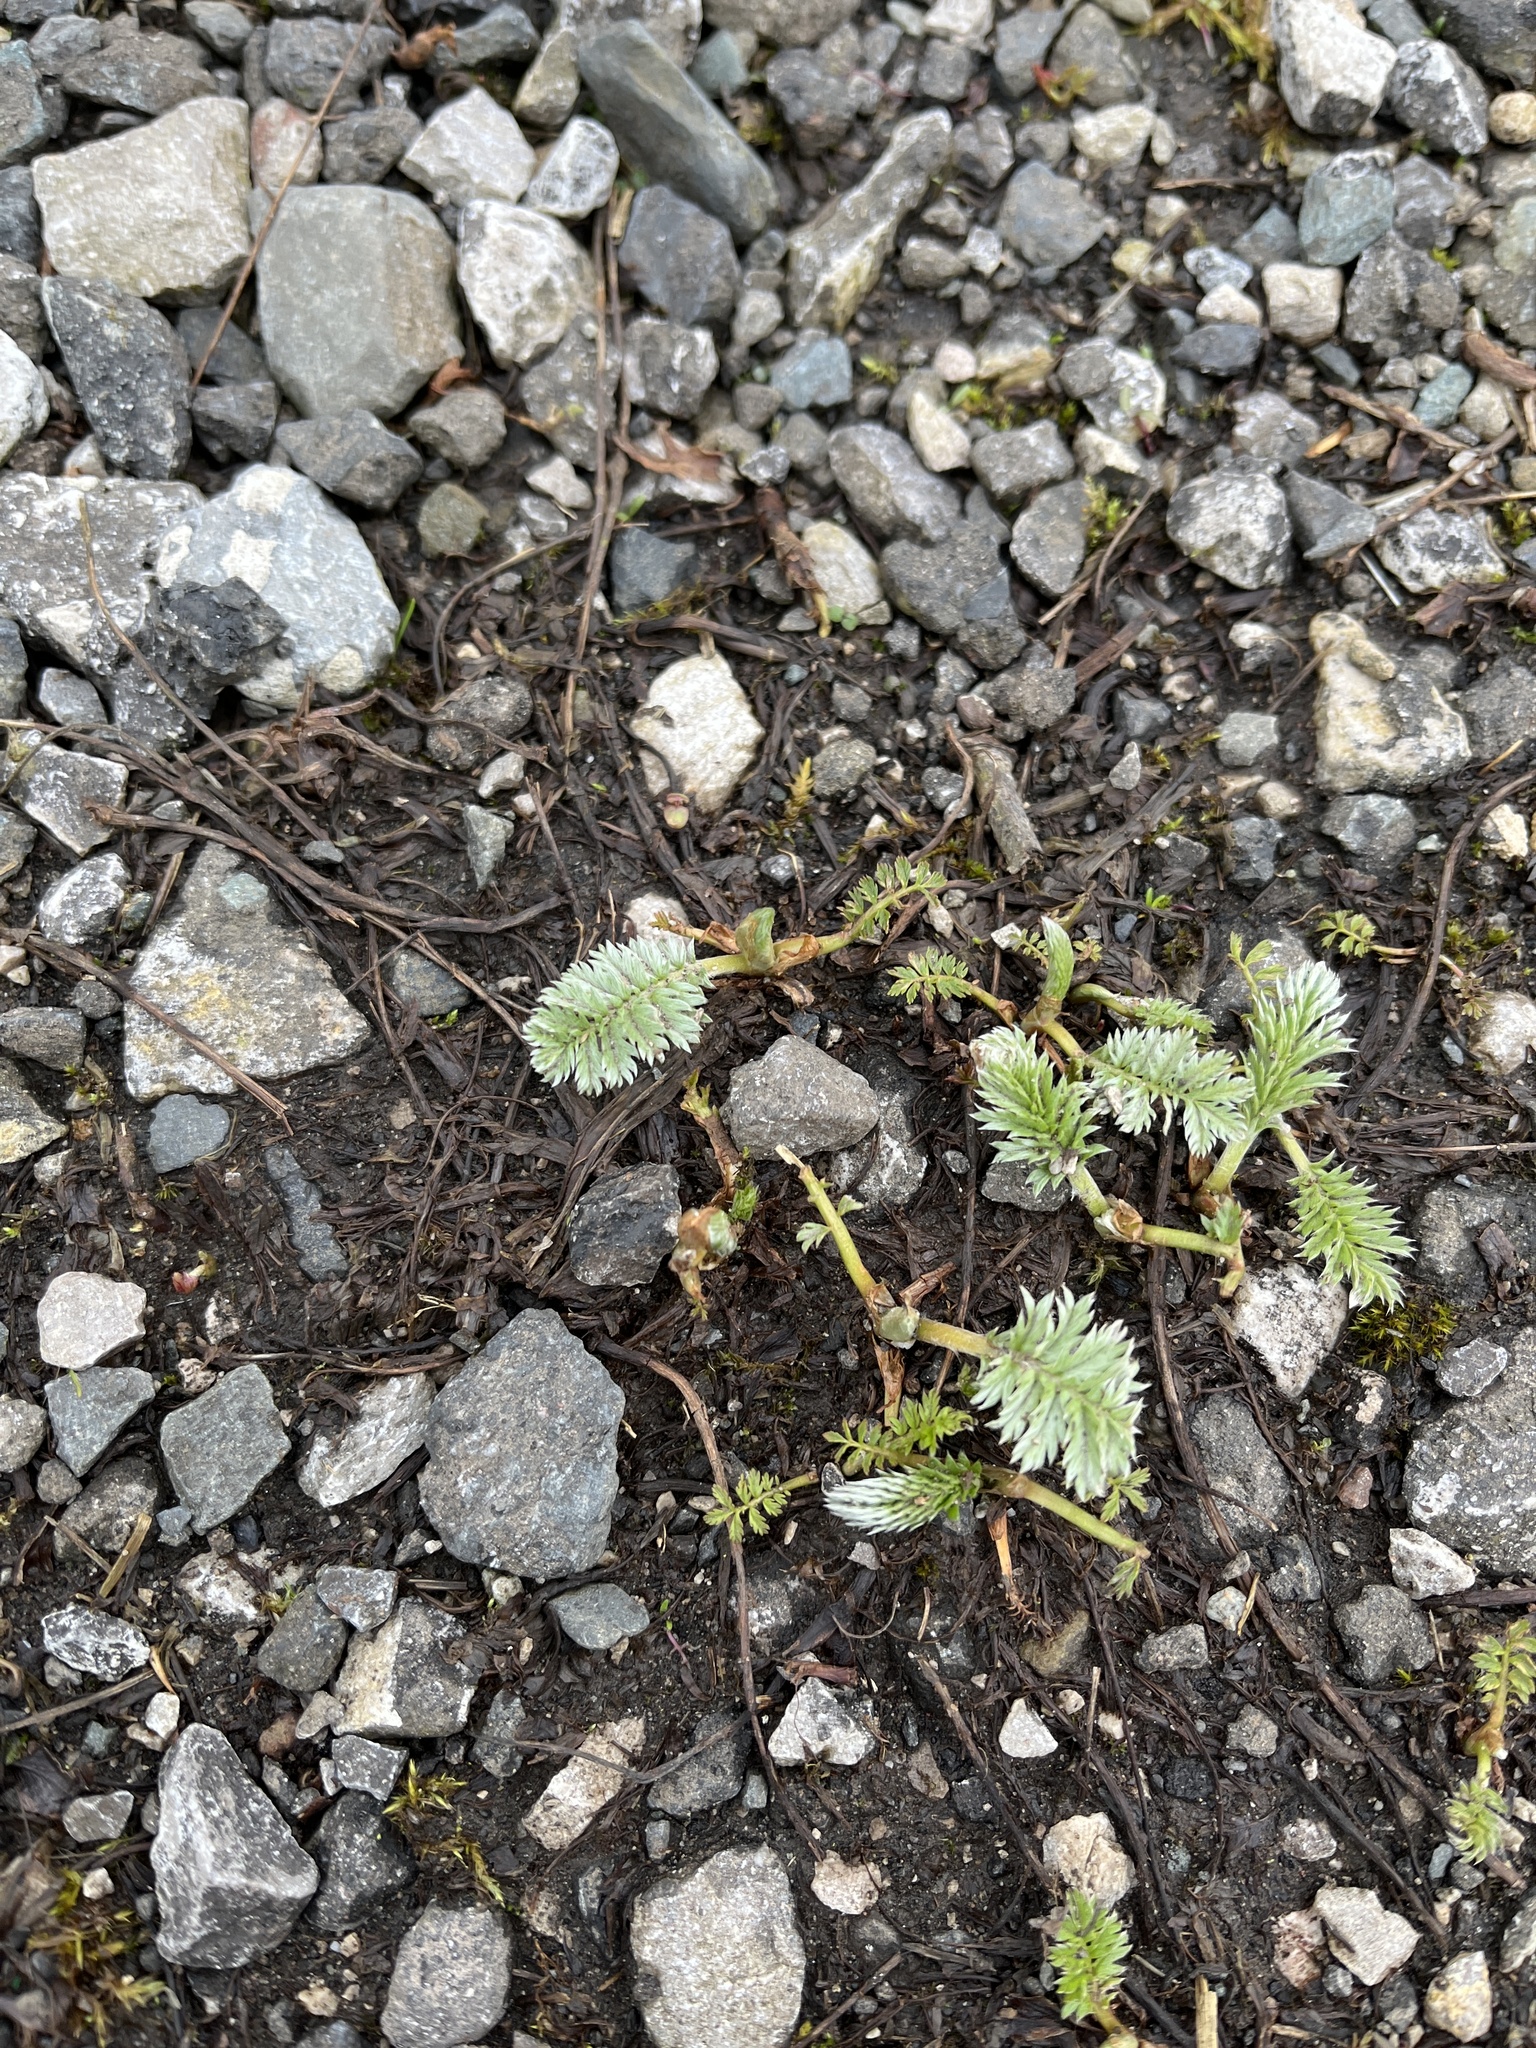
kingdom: Plantae
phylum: Tracheophyta
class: Magnoliopsida
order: Rosales
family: Rosaceae
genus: Argentina
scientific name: Argentina anserina
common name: Common silverweed
